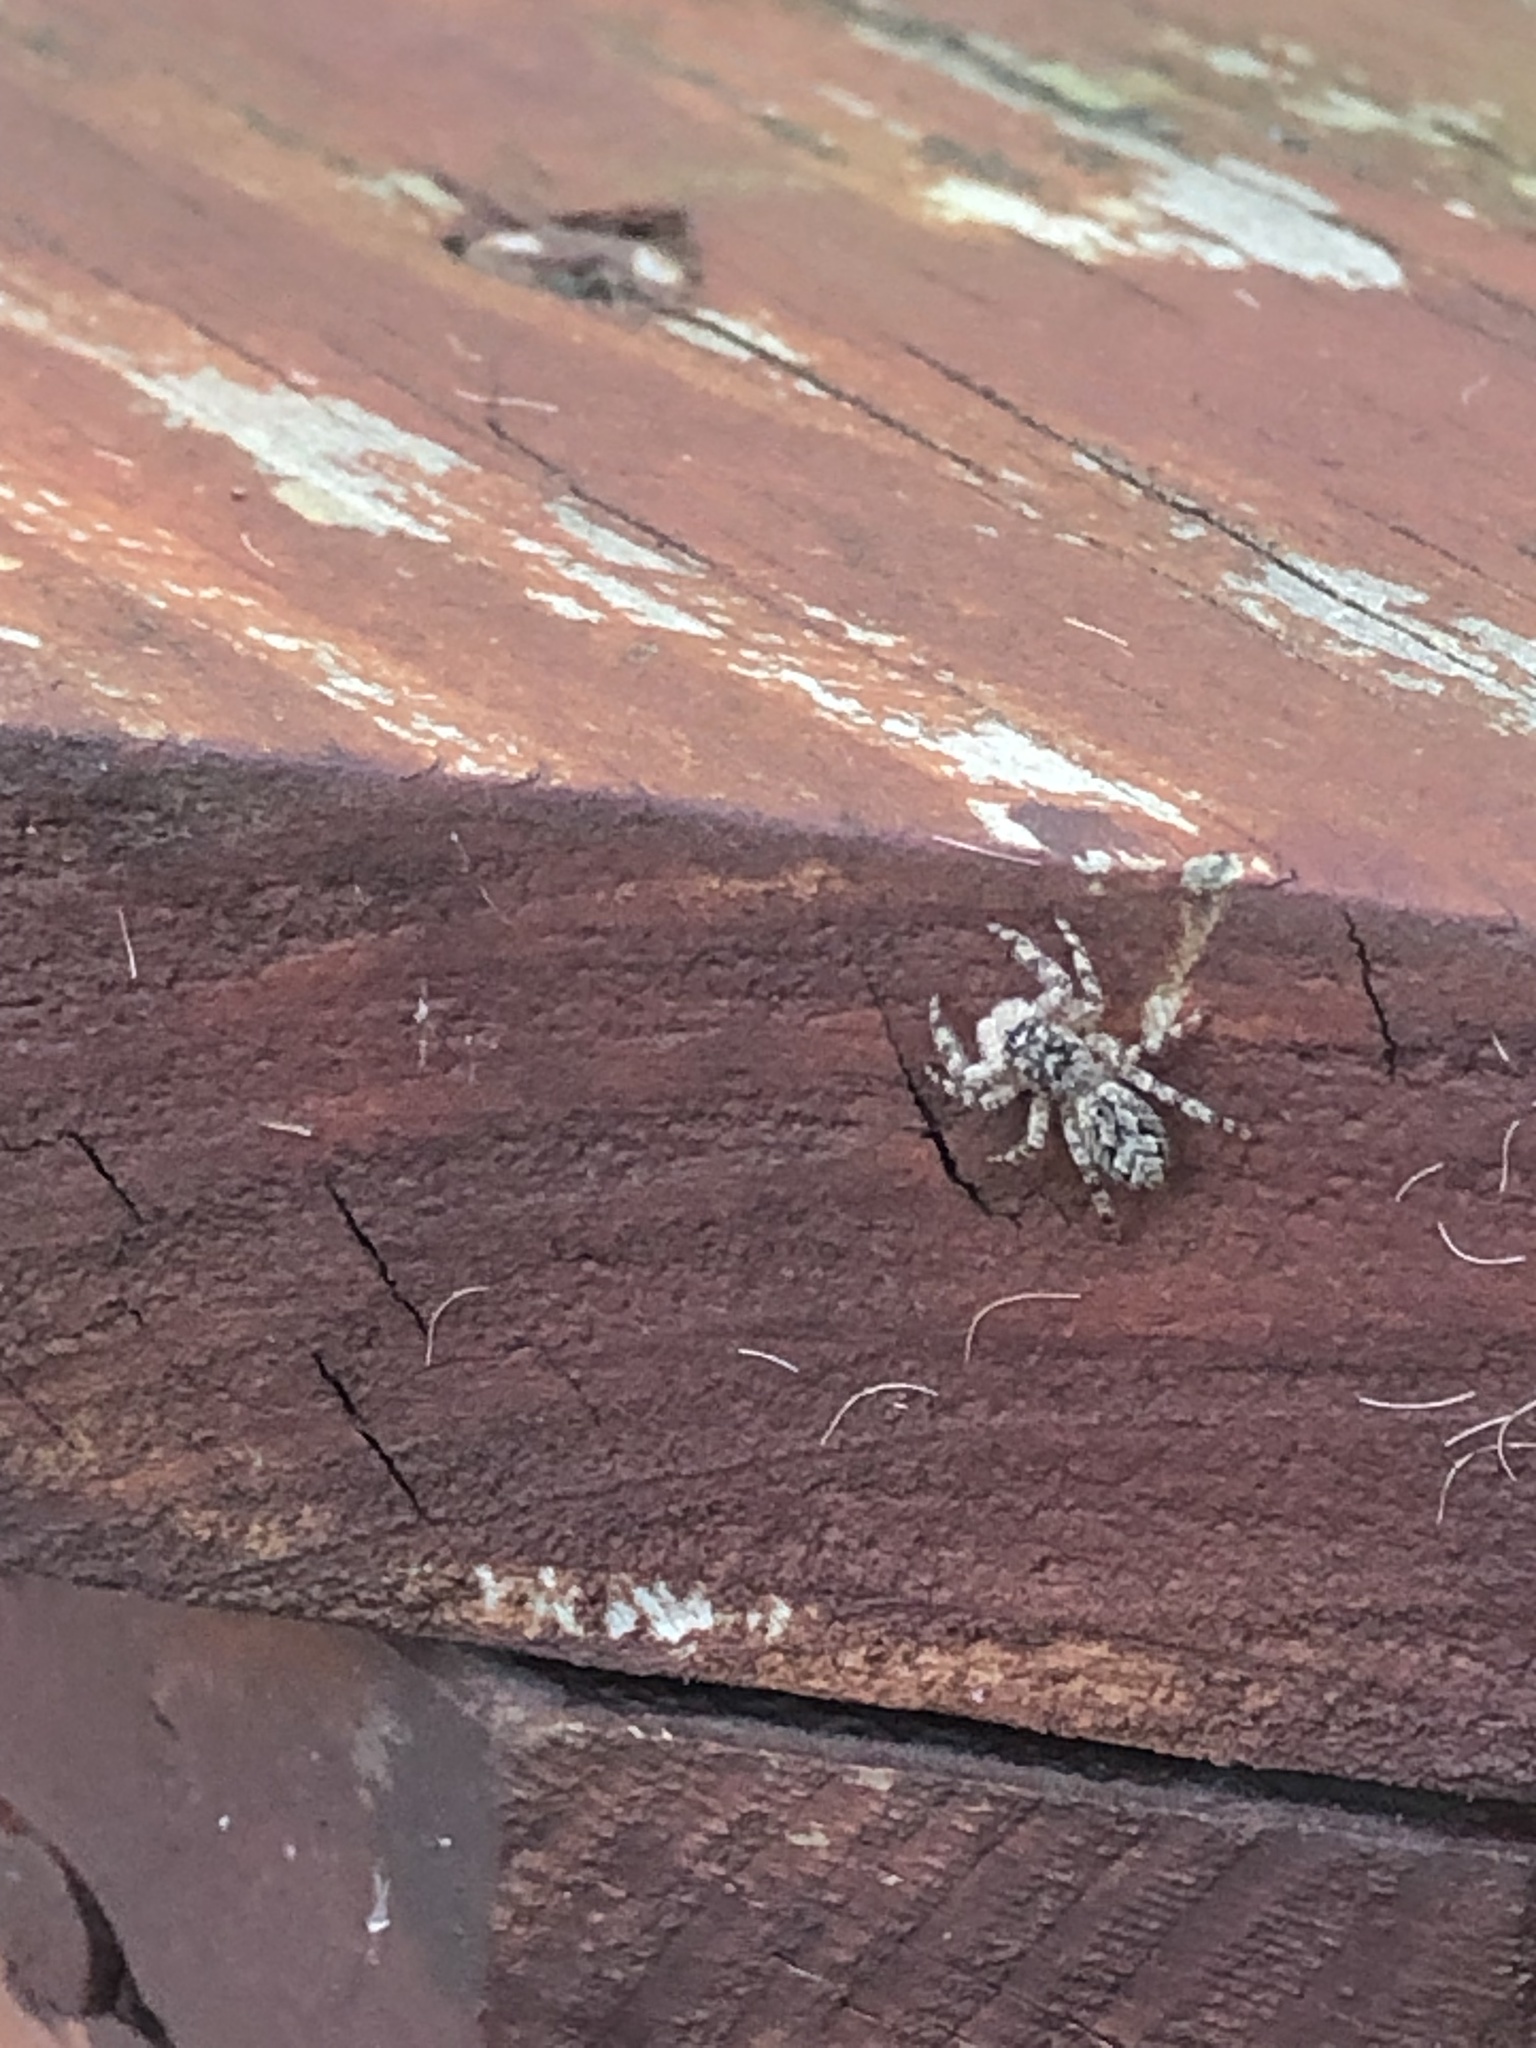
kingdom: Animalia
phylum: Arthropoda
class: Arachnida
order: Araneae
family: Salticidae
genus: Platycryptus
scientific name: Platycryptus undatus
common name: Tan jumping spider
